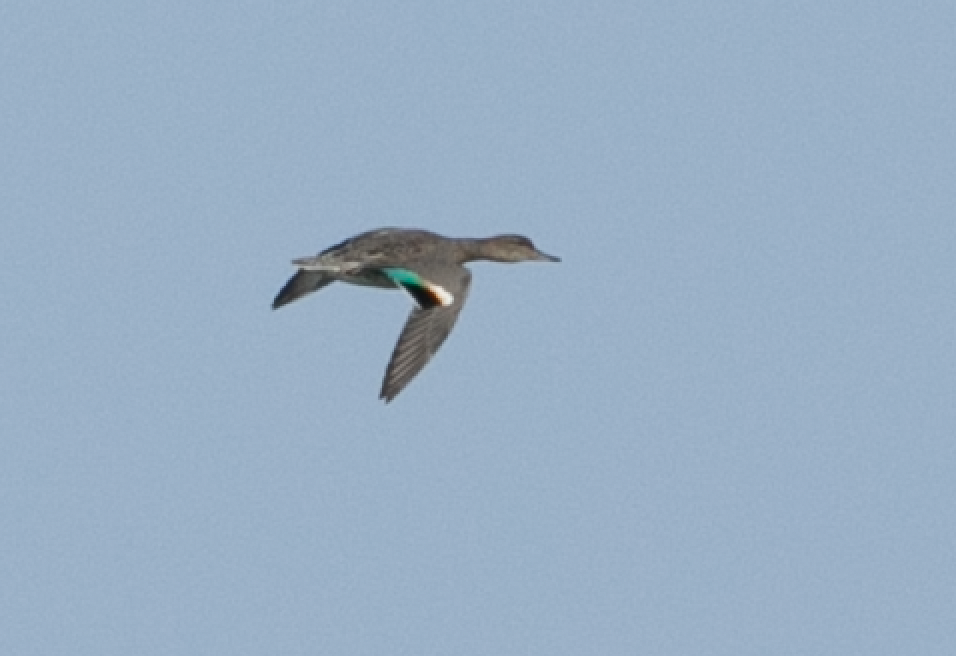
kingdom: Animalia
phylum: Chordata
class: Aves
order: Anseriformes
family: Anatidae
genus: Anas
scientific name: Anas crecca
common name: Eurasian teal
